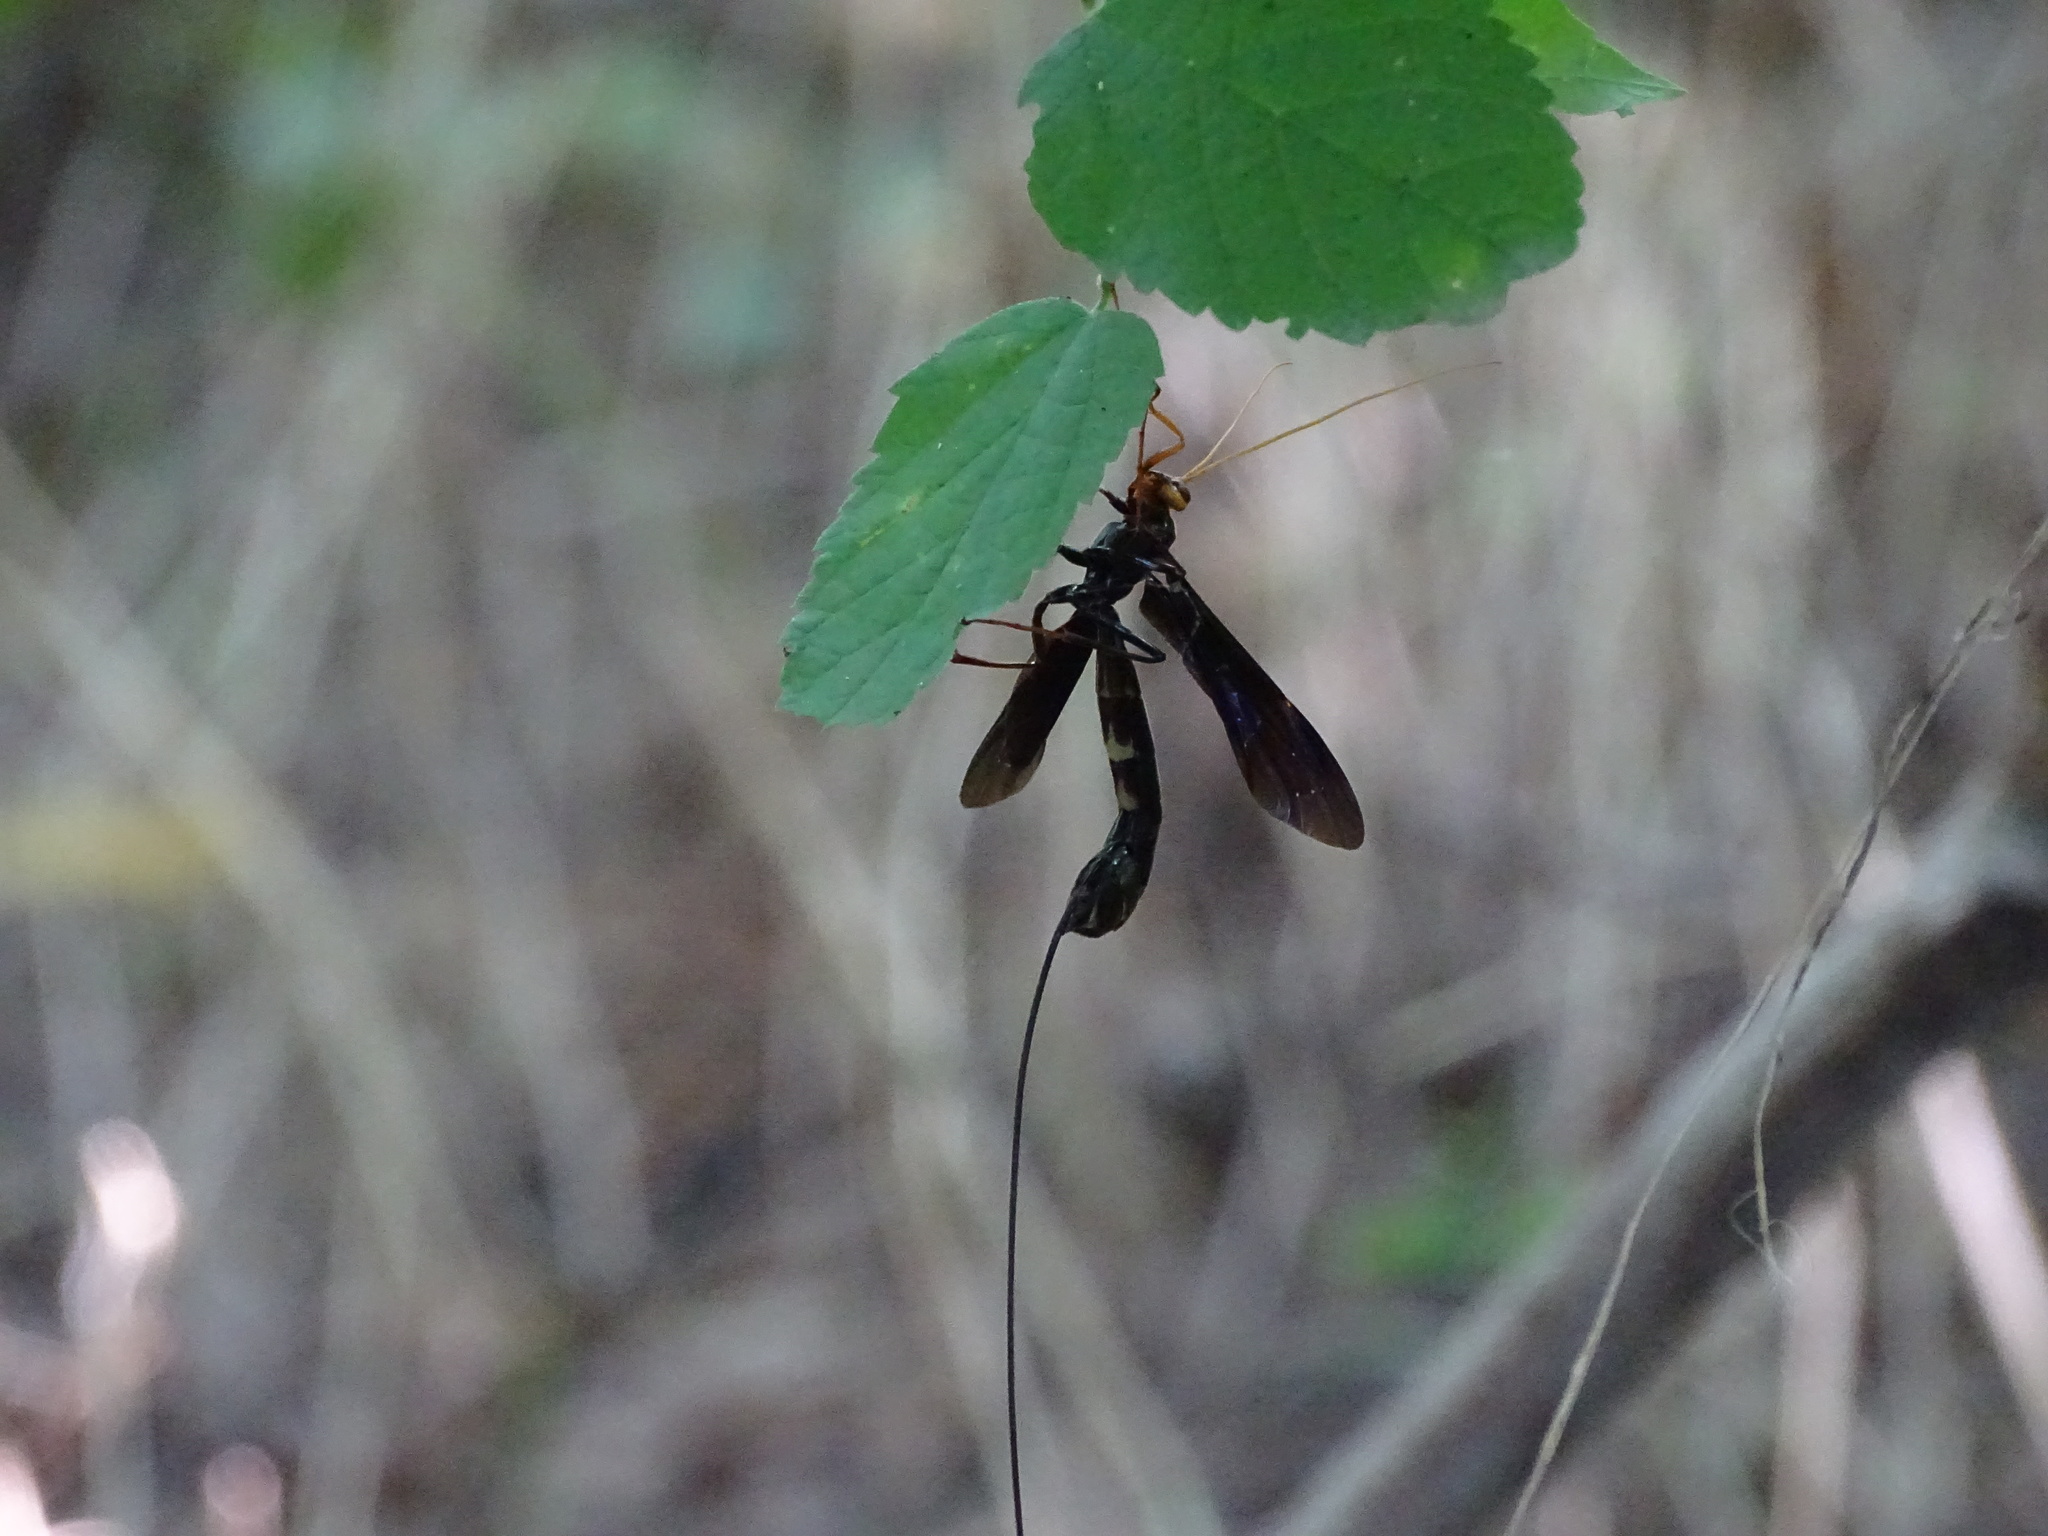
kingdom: Animalia
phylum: Arthropoda
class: Insecta
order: Hymenoptera
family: Ichneumonidae
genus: Megarhyssa
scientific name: Megarhyssa atrata
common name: Black giant ichneumonid wasp
